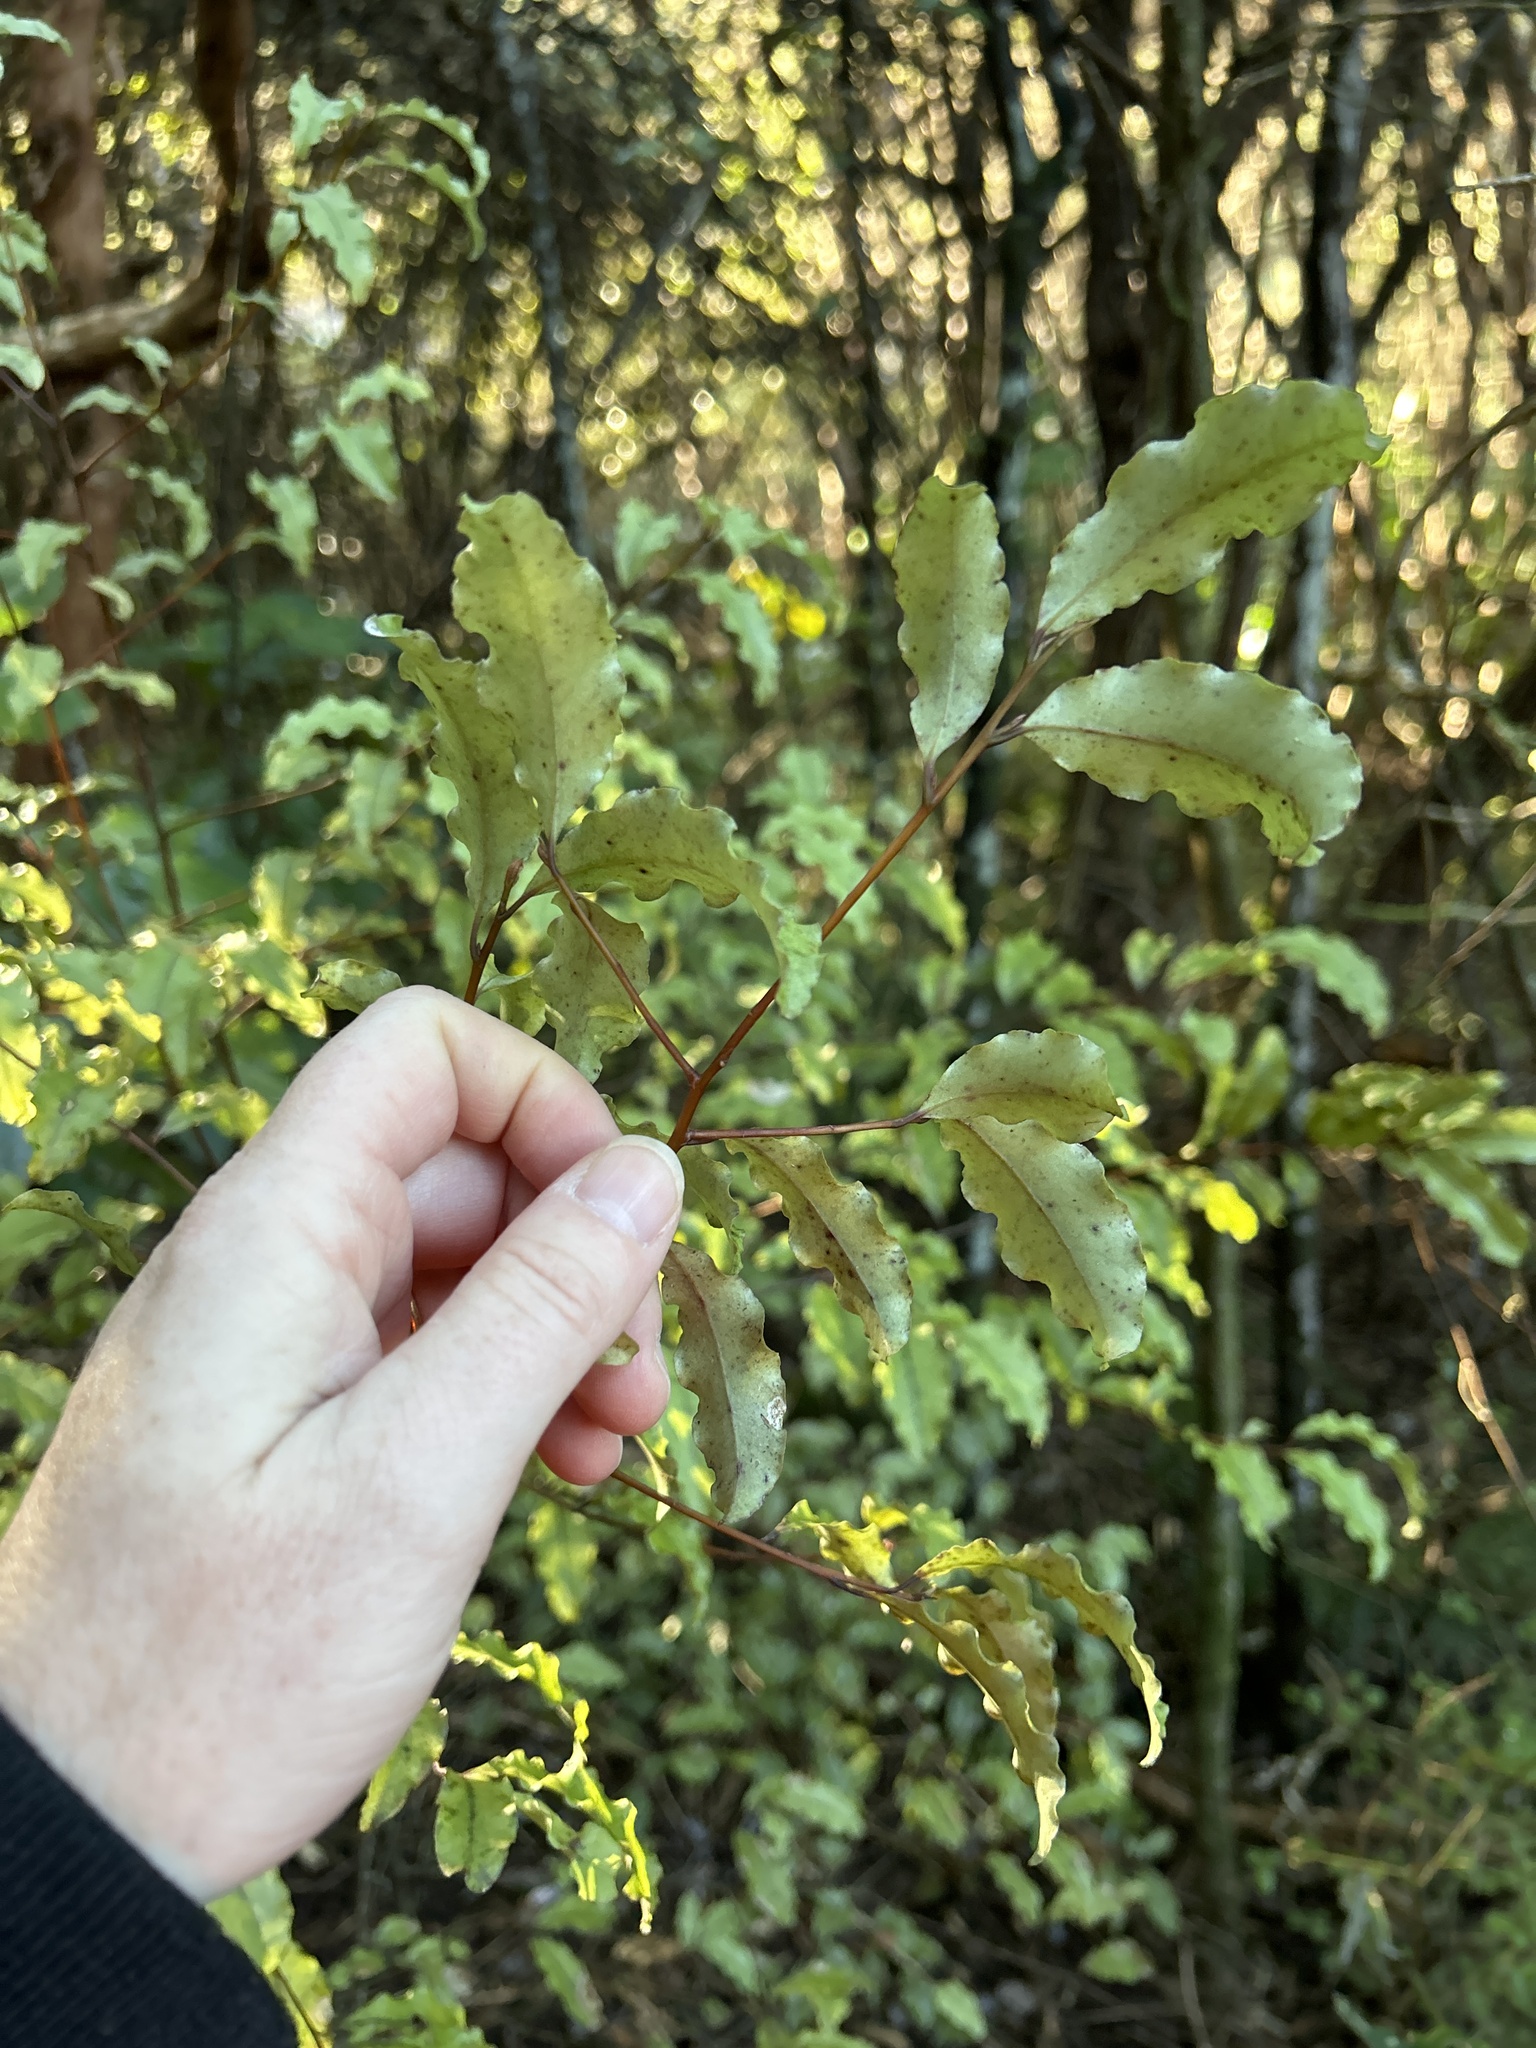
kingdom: Plantae
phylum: Tracheophyta
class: Magnoliopsida
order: Ericales
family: Primulaceae
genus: Myrsine
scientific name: Myrsine australis
